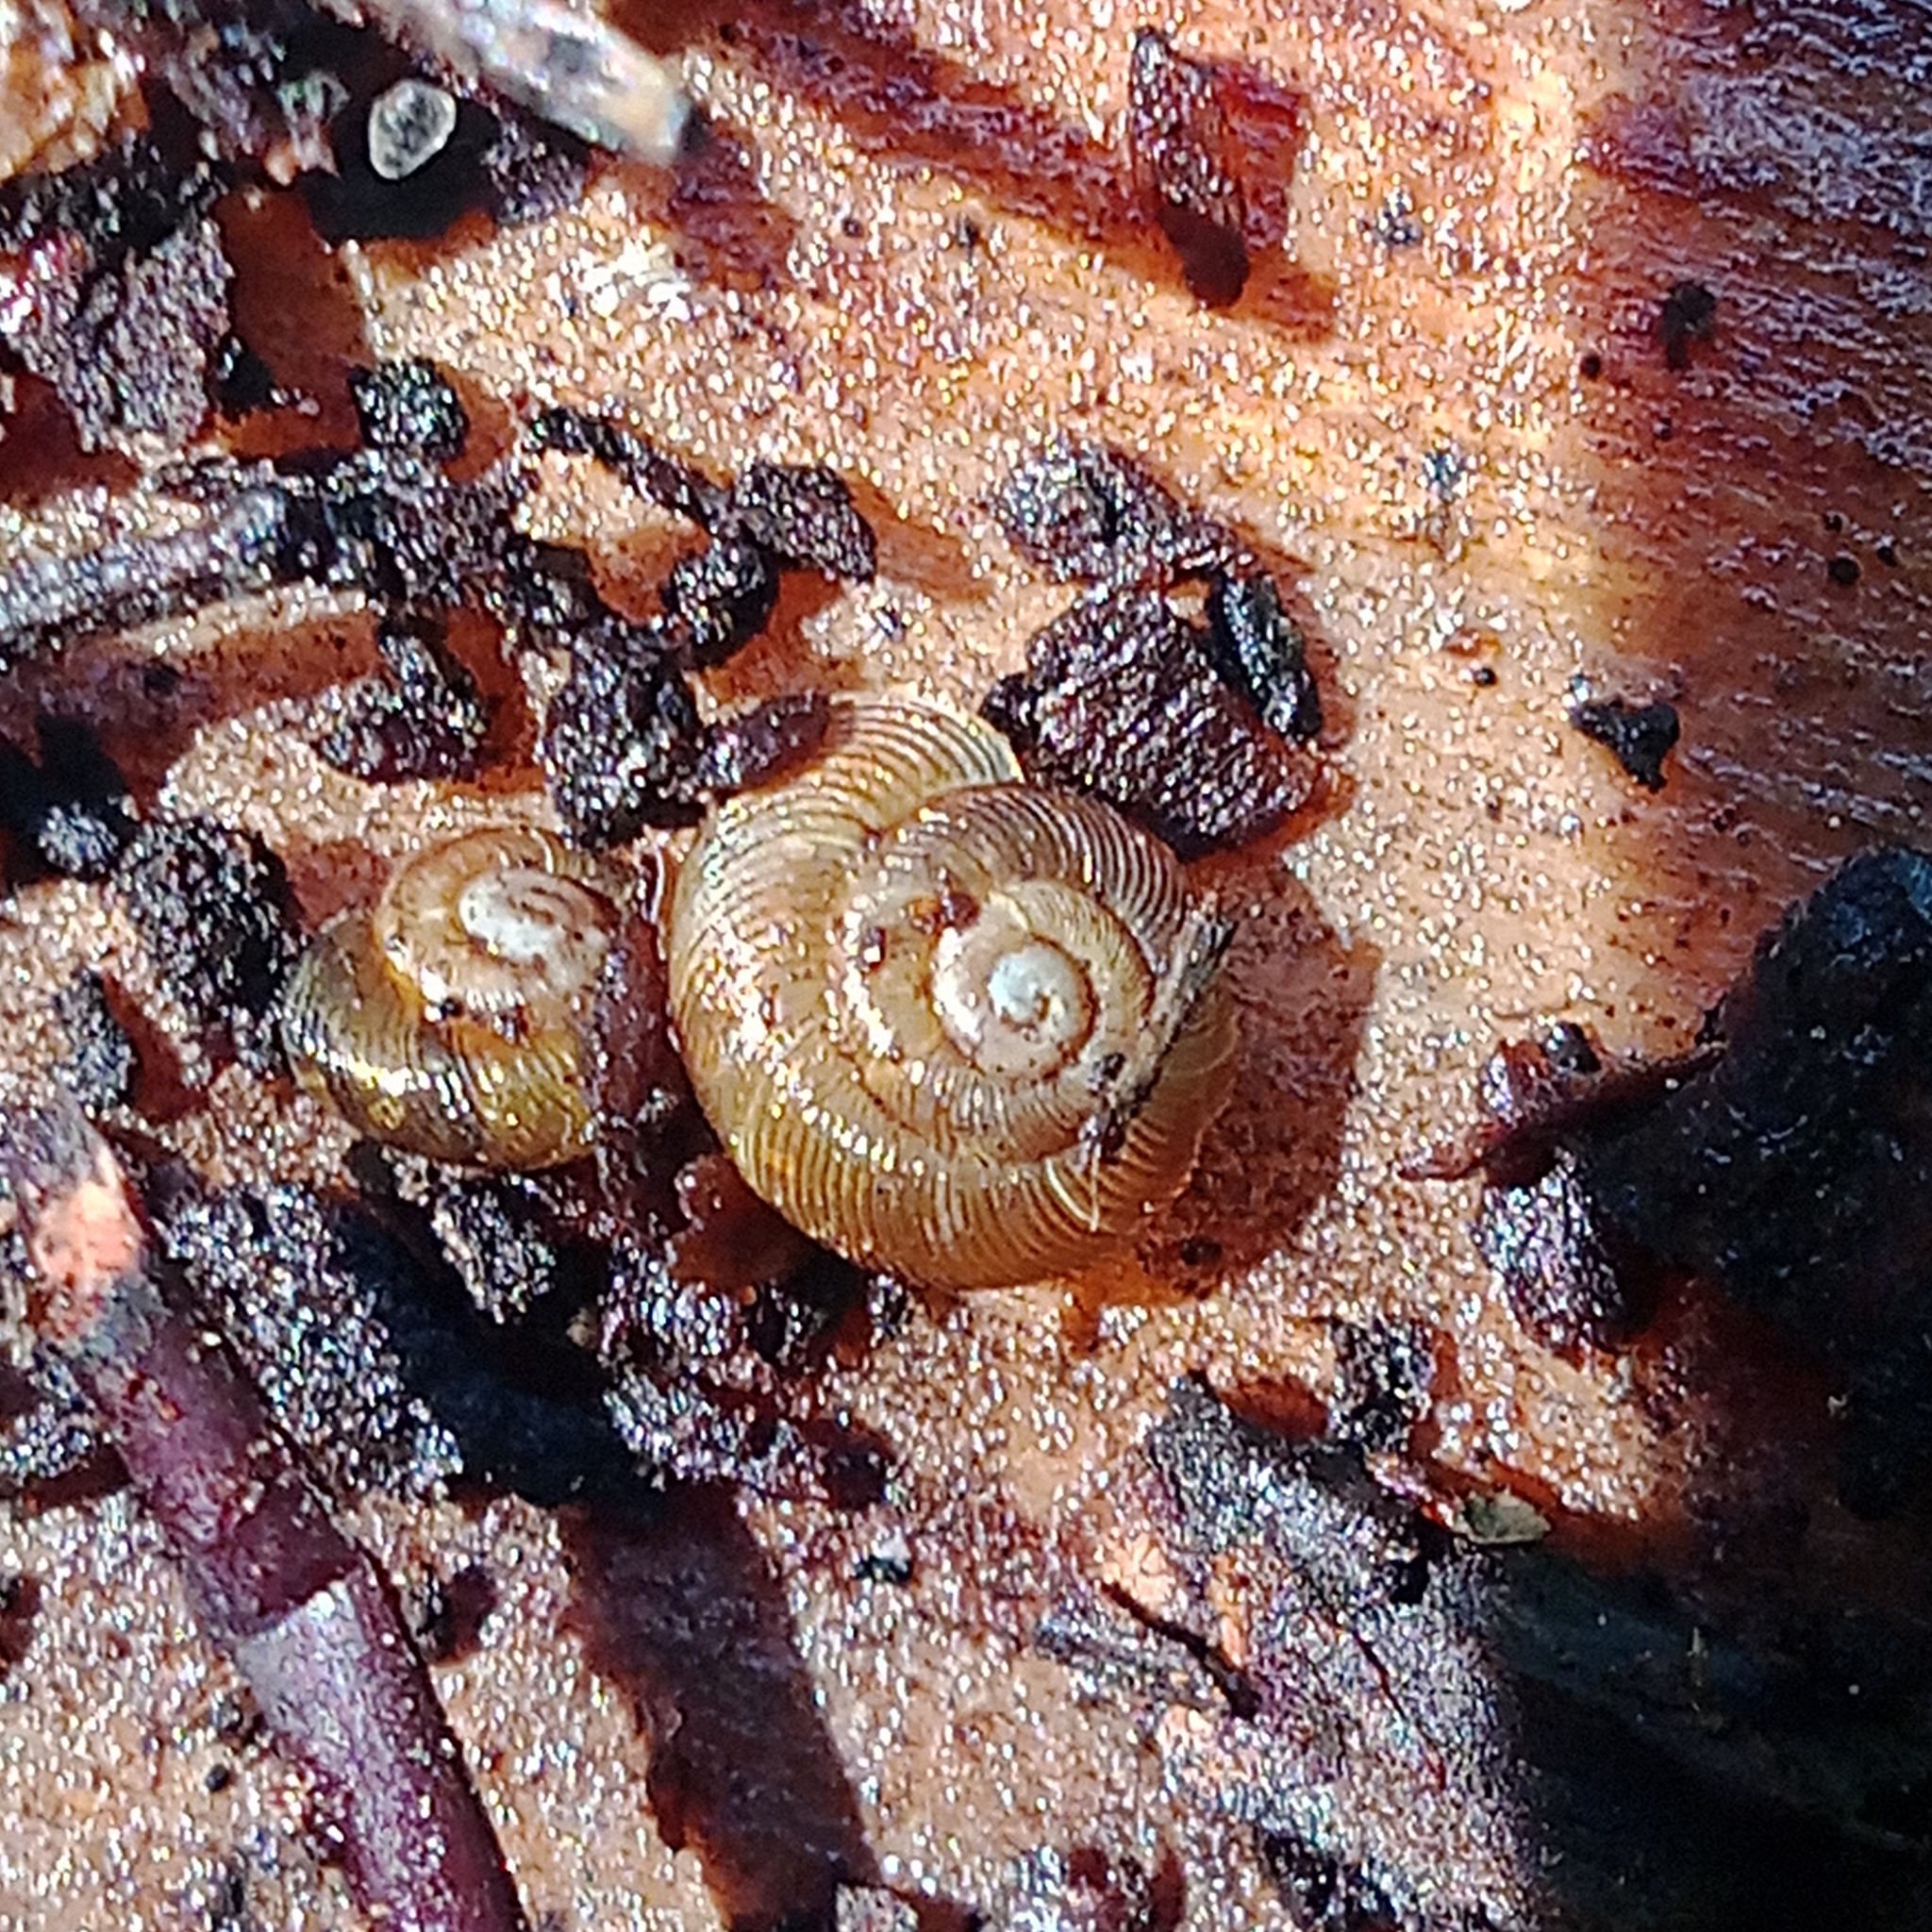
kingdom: Animalia
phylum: Mollusca
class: Gastropoda
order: Stylommatophora
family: Discidae
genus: Discus
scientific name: Discus ruderatus
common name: Brown disc snail
